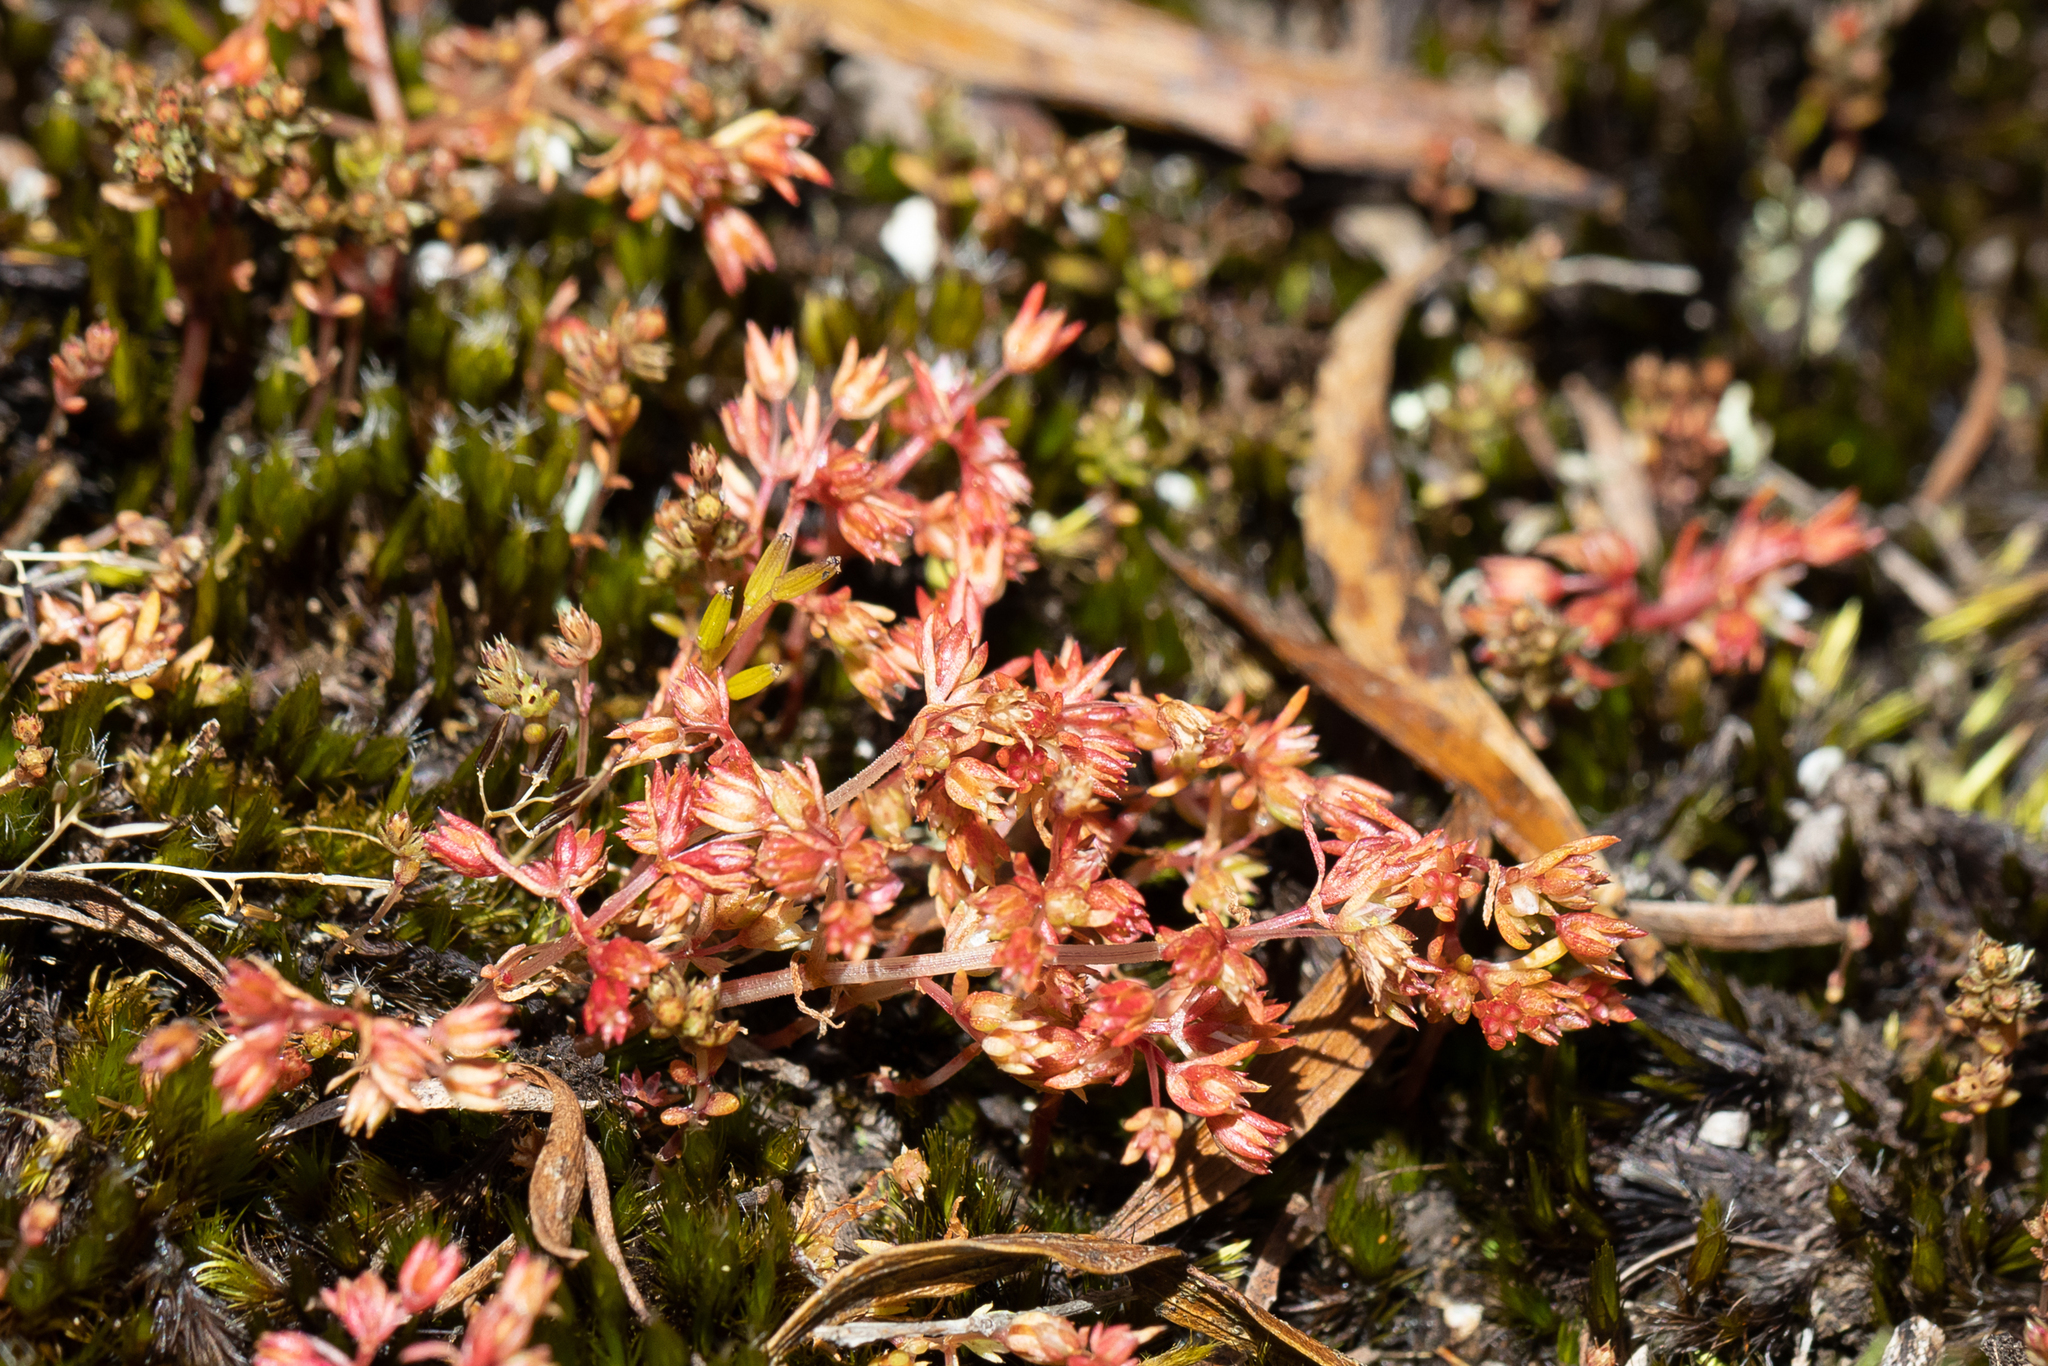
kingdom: Plantae
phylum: Tracheophyta
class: Magnoliopsida
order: Saxifragales
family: Crassulaceae
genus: Crassula
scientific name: Crassula decumbens
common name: Scilly pigmyweed
